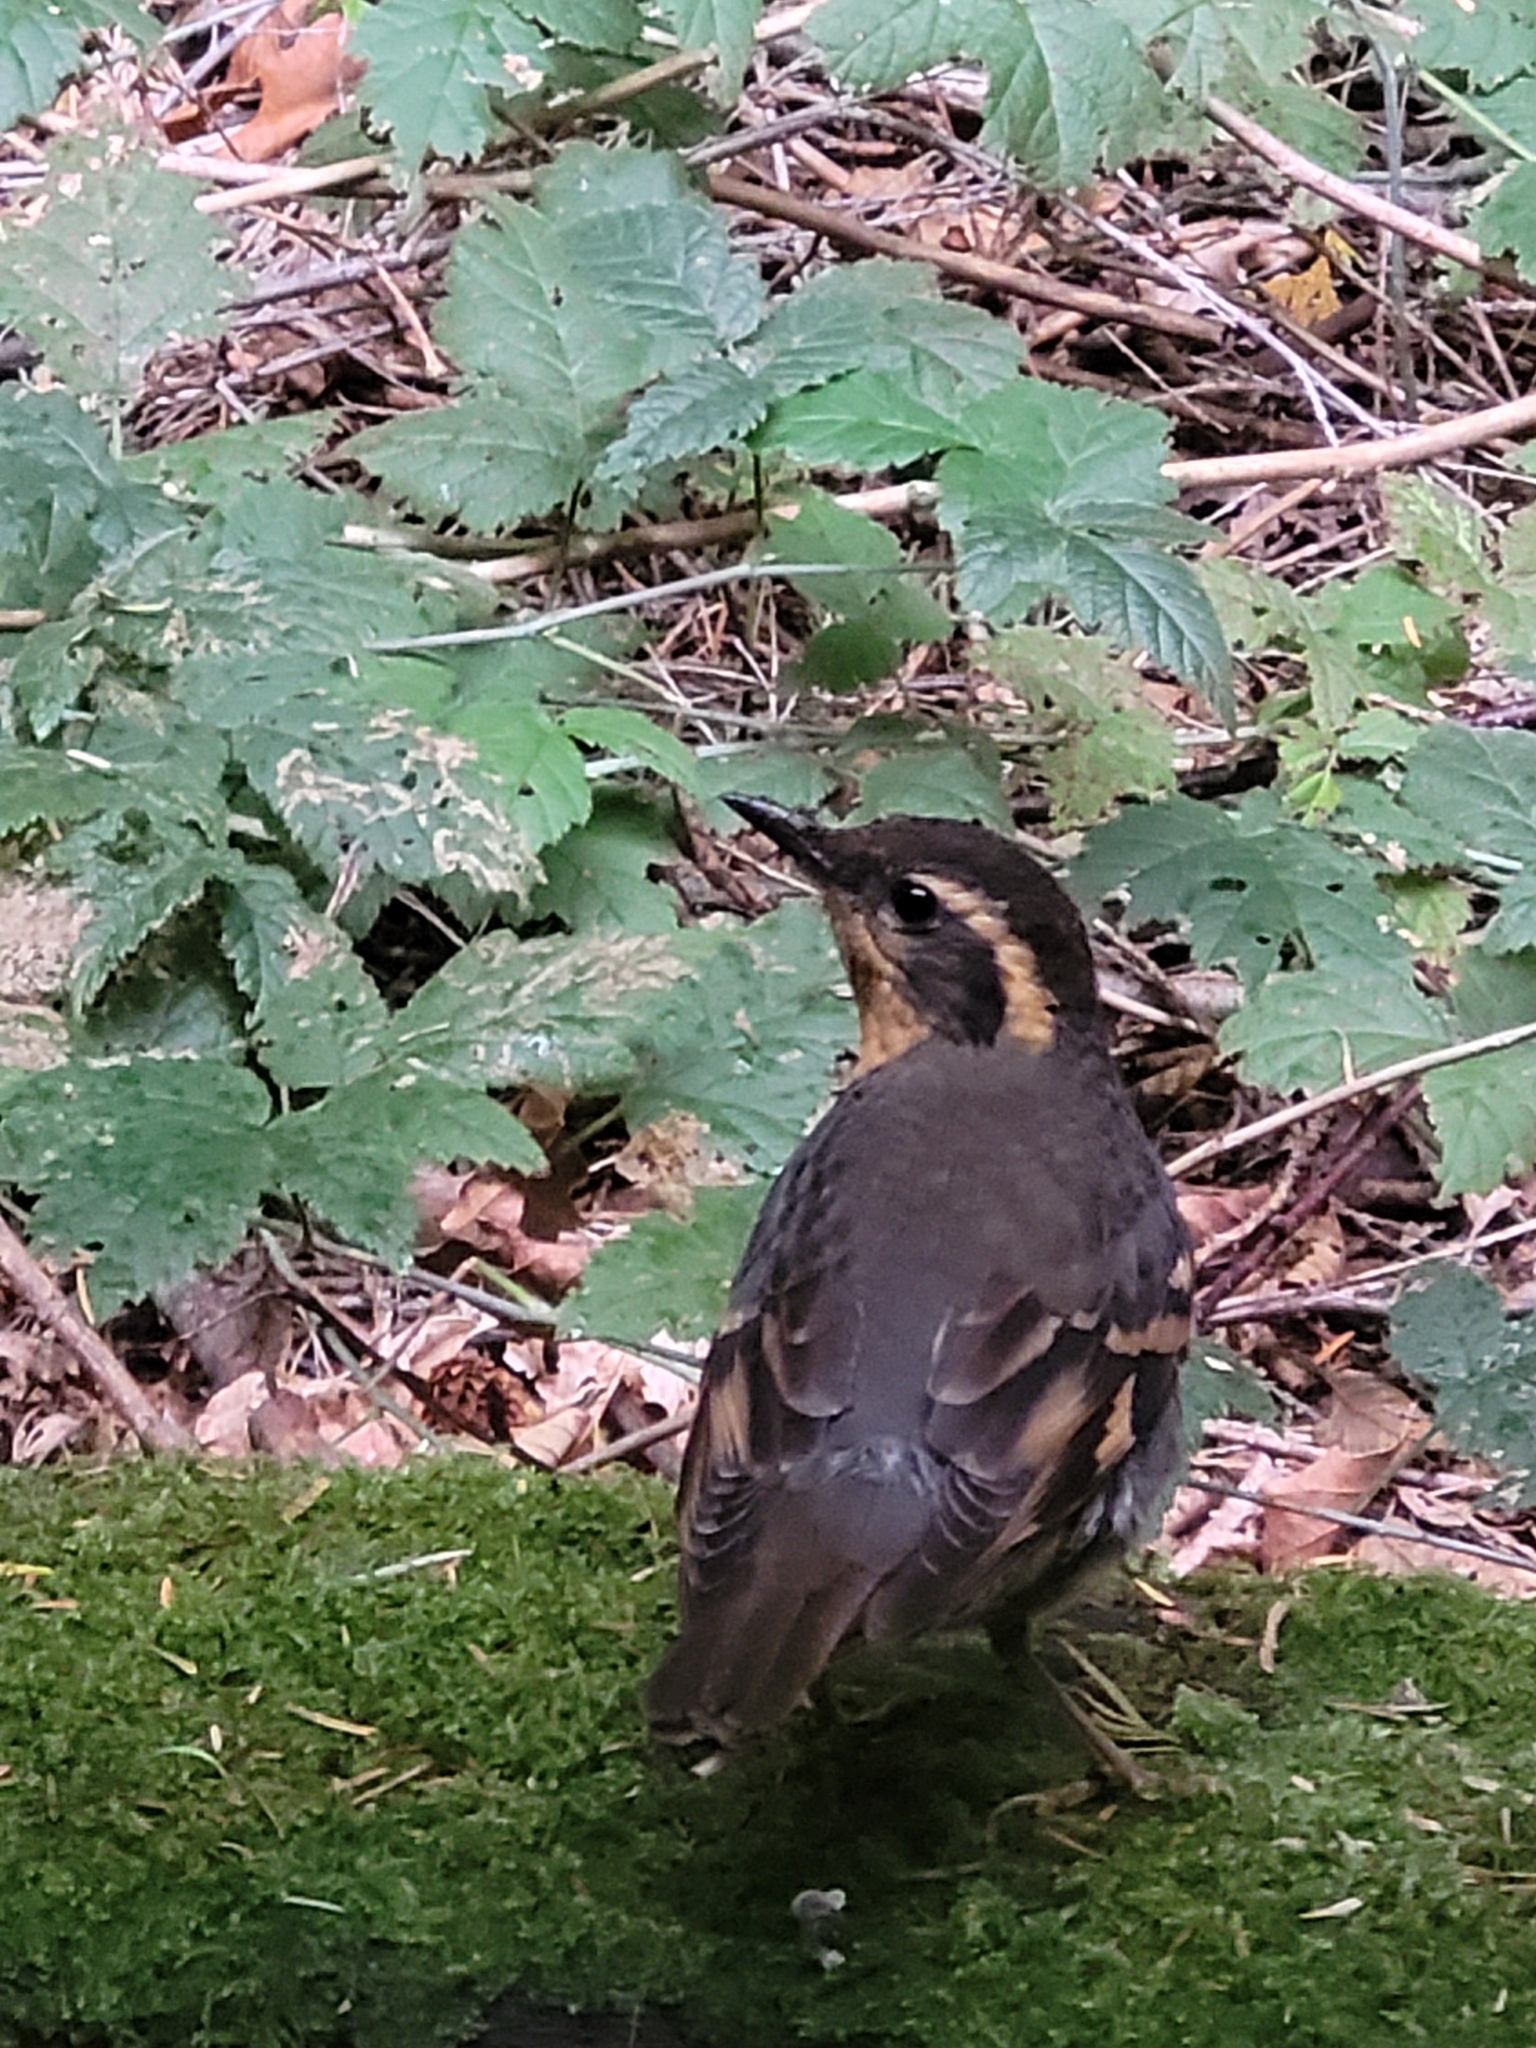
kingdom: Animalia
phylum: Chordata
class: Aves
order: Passeriformes
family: Turdidae
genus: Ixoreus
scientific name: Ixoreus naevius
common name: Varied thrush
